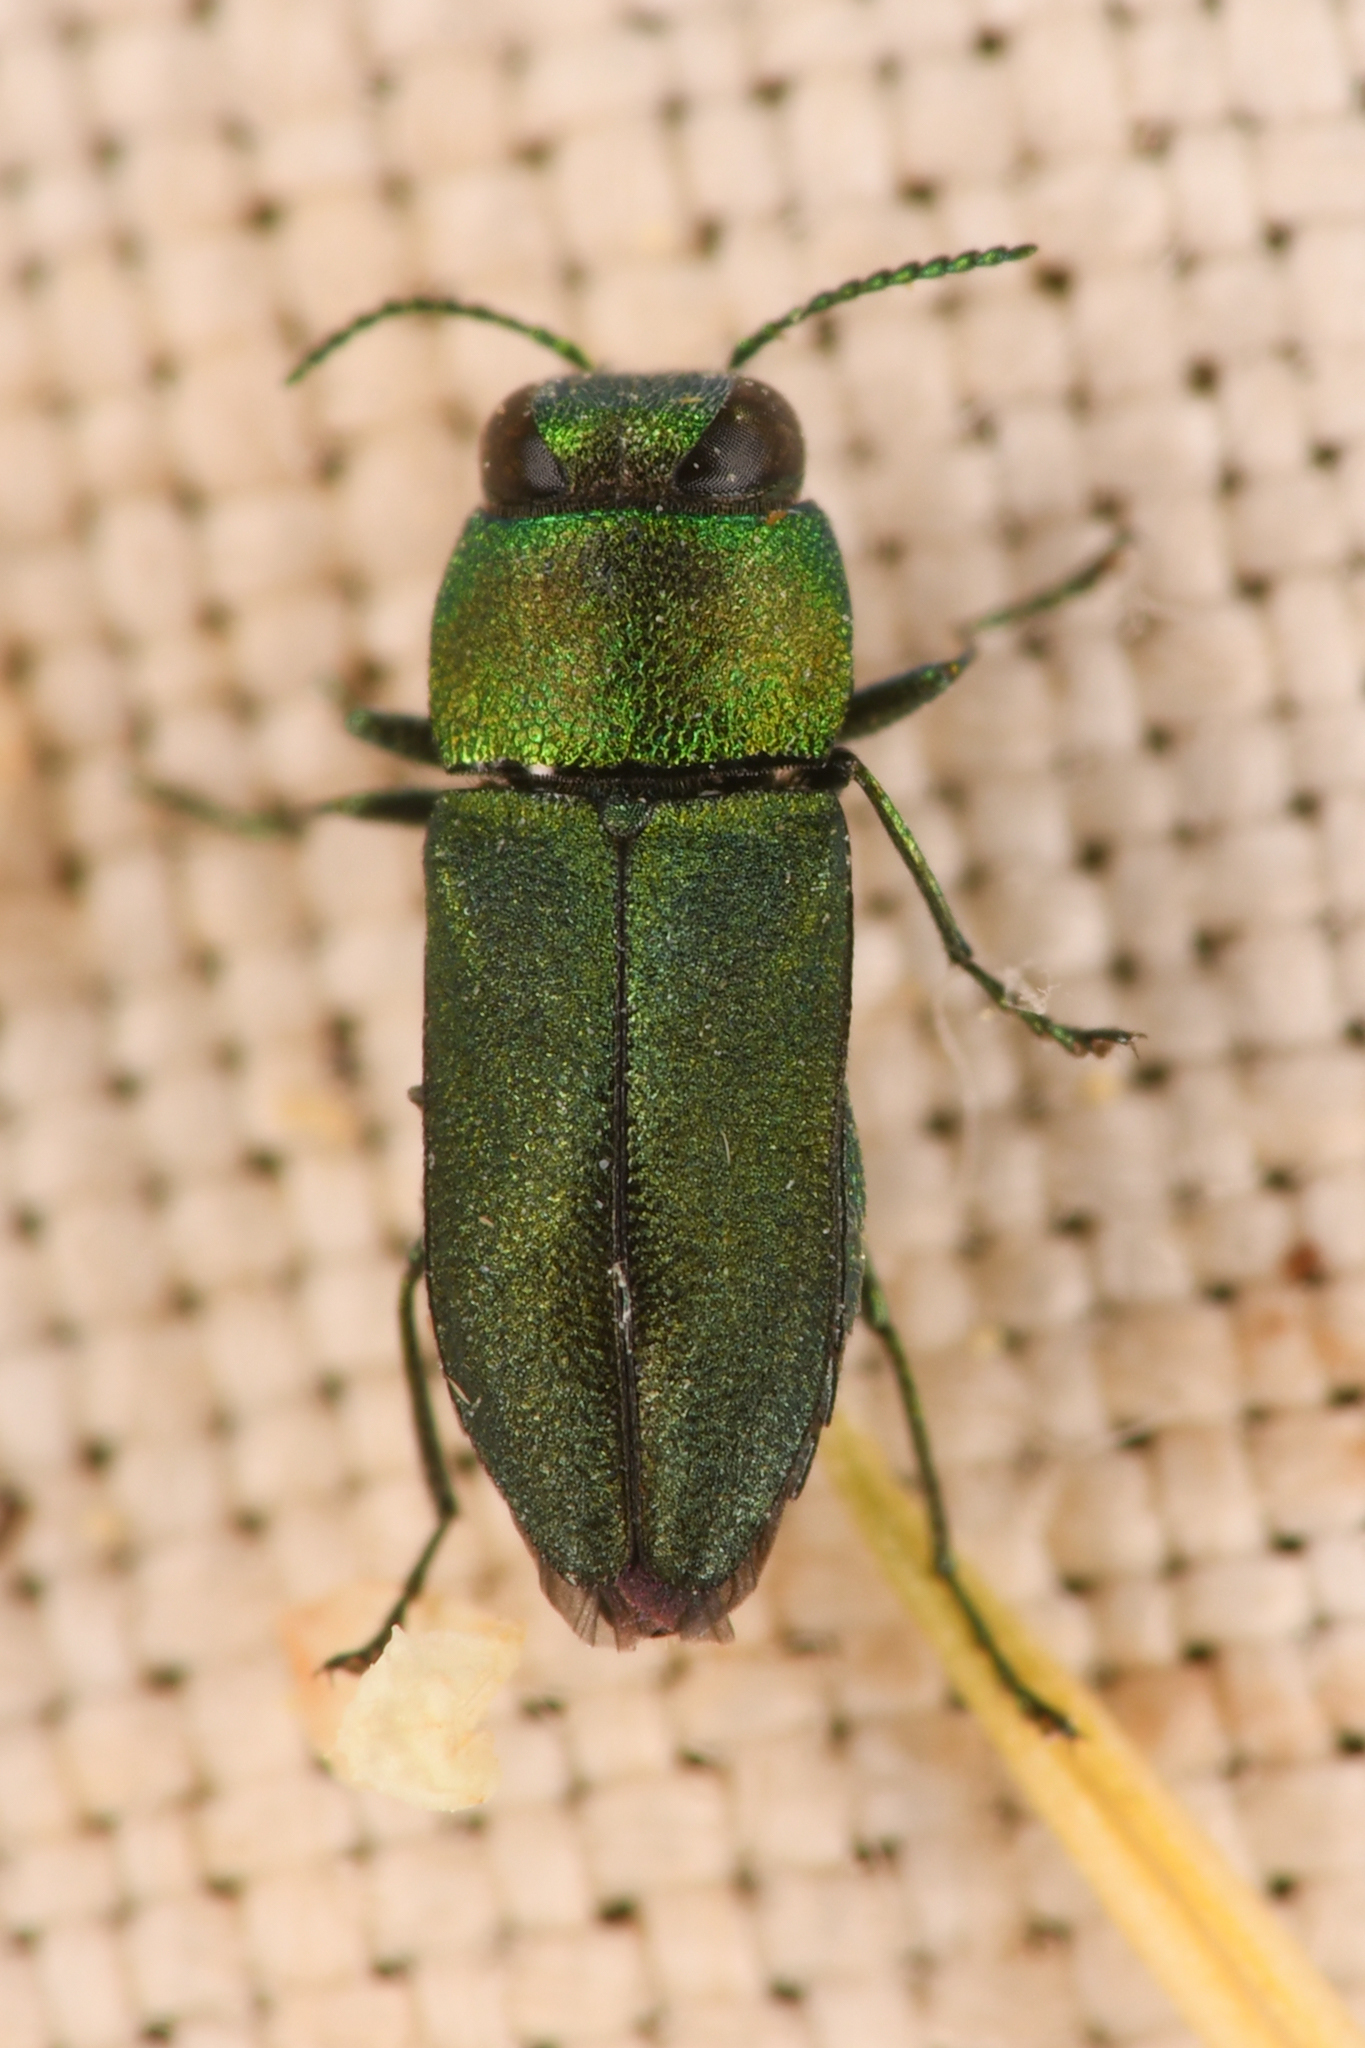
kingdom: Animalia
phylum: Arthropoda
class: Insecta
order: Coleoptera
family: Buprestidae
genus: Anthaxia
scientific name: Anthaxia caseyi
